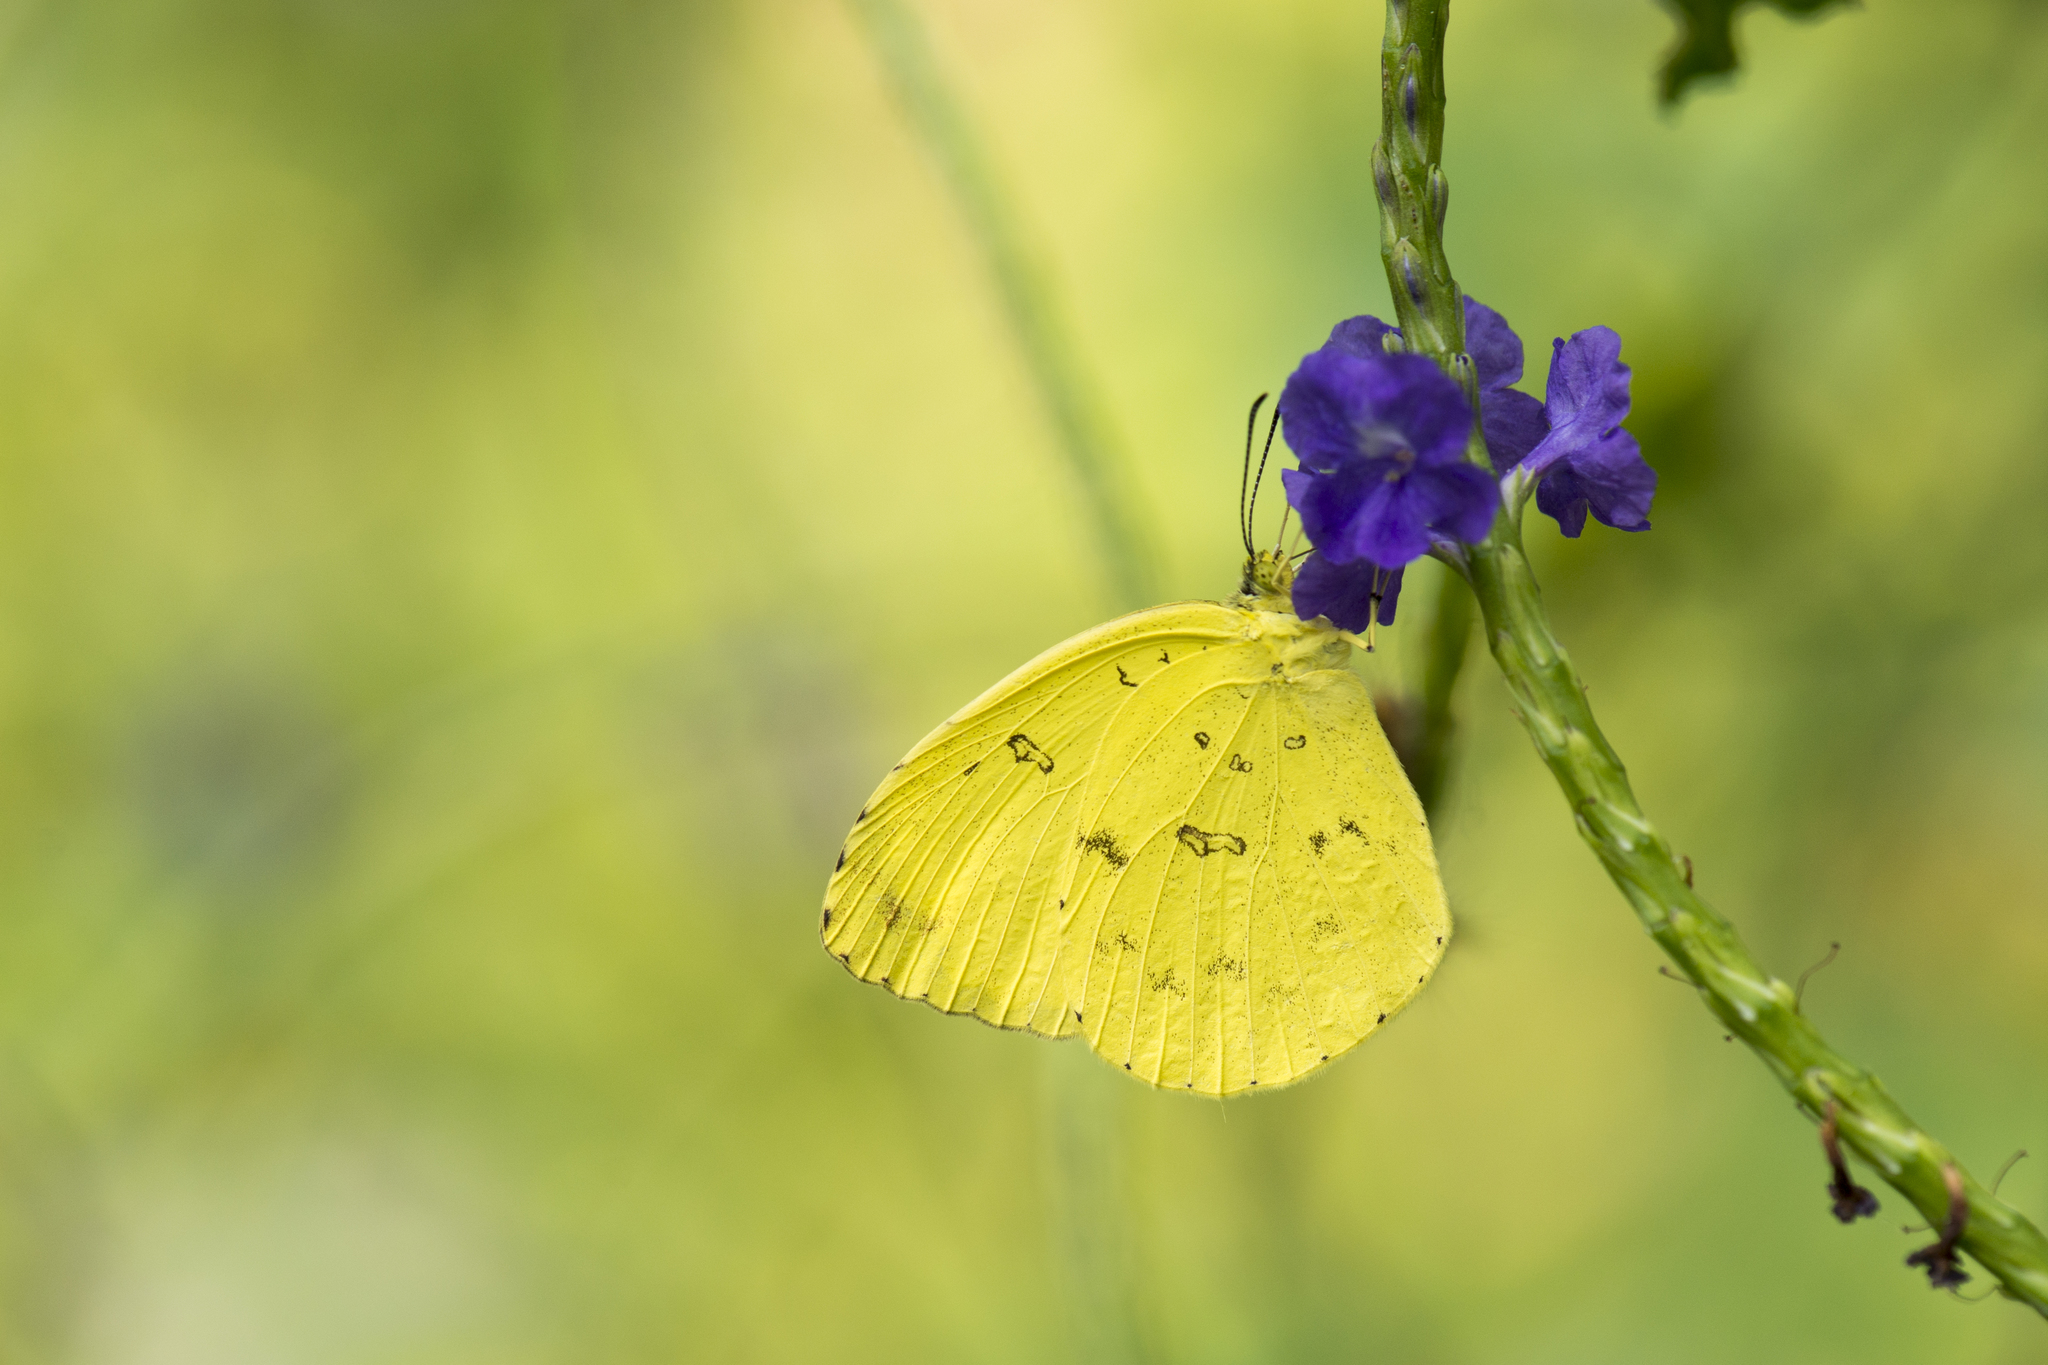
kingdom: Animalia
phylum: Arthropoda
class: Insecta
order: Lepidoptera
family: Pieridae
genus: Eurema
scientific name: Eurema blanda
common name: Three-spot grass yellow
